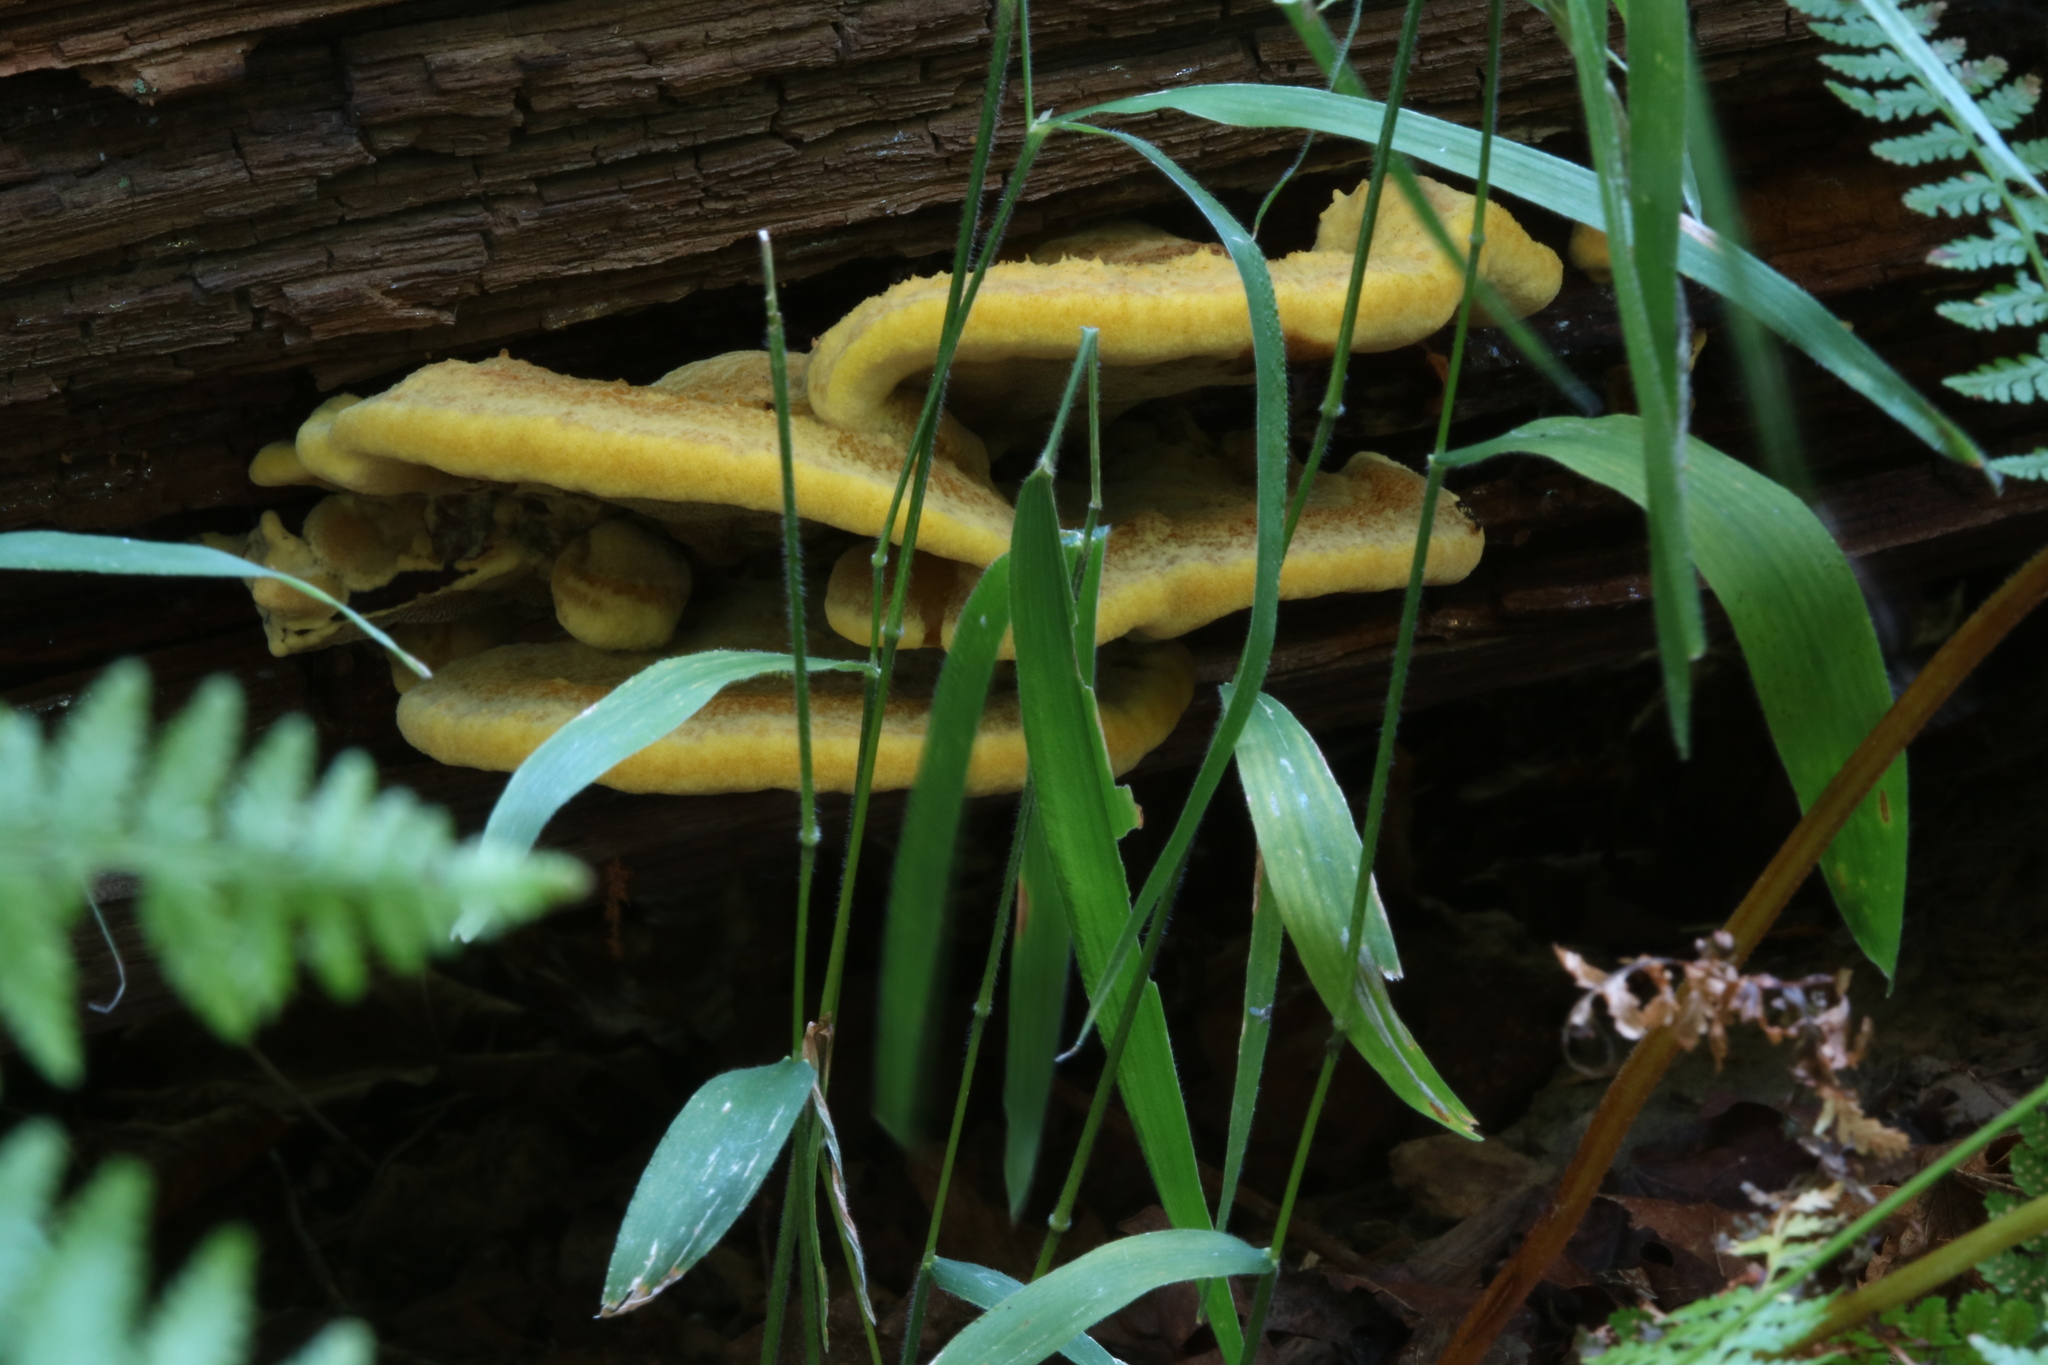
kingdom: Fungi
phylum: Basidiomycota
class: Agaricomycetes
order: Polyporales
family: Laetiporaceae
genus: Phaeolus
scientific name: Phaeolus schweinitzii
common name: Dyer's mazegill
